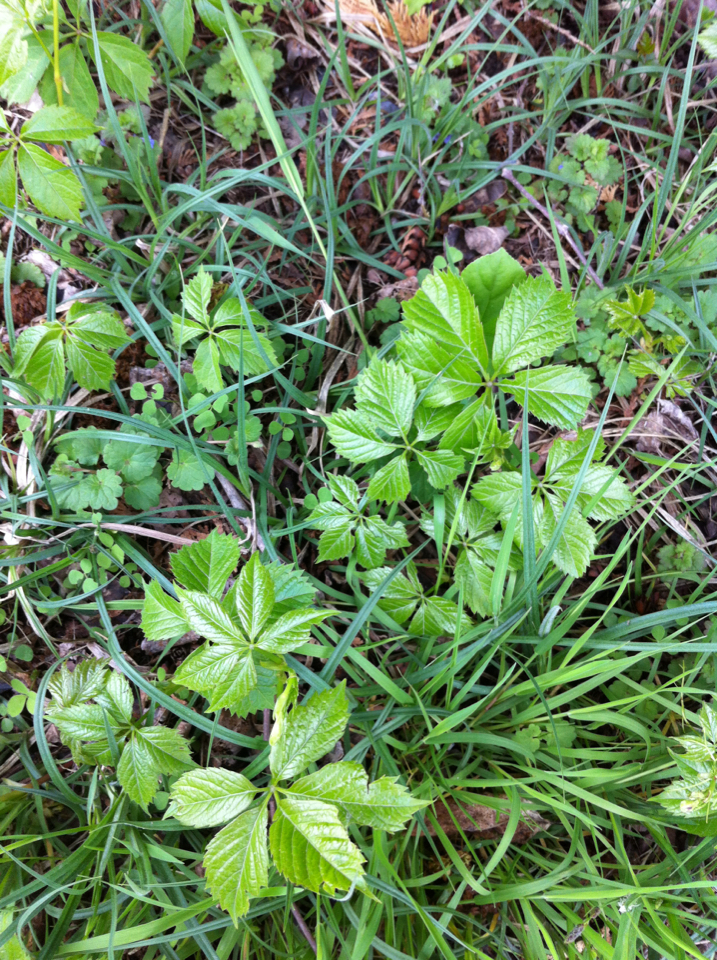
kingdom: Plantae
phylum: Tracheophyta
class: Magnoliopsida
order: Vitales
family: Vitaceae
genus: Parthenocissus
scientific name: Parthenocissus quinquefolia
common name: Virginia-creeper
